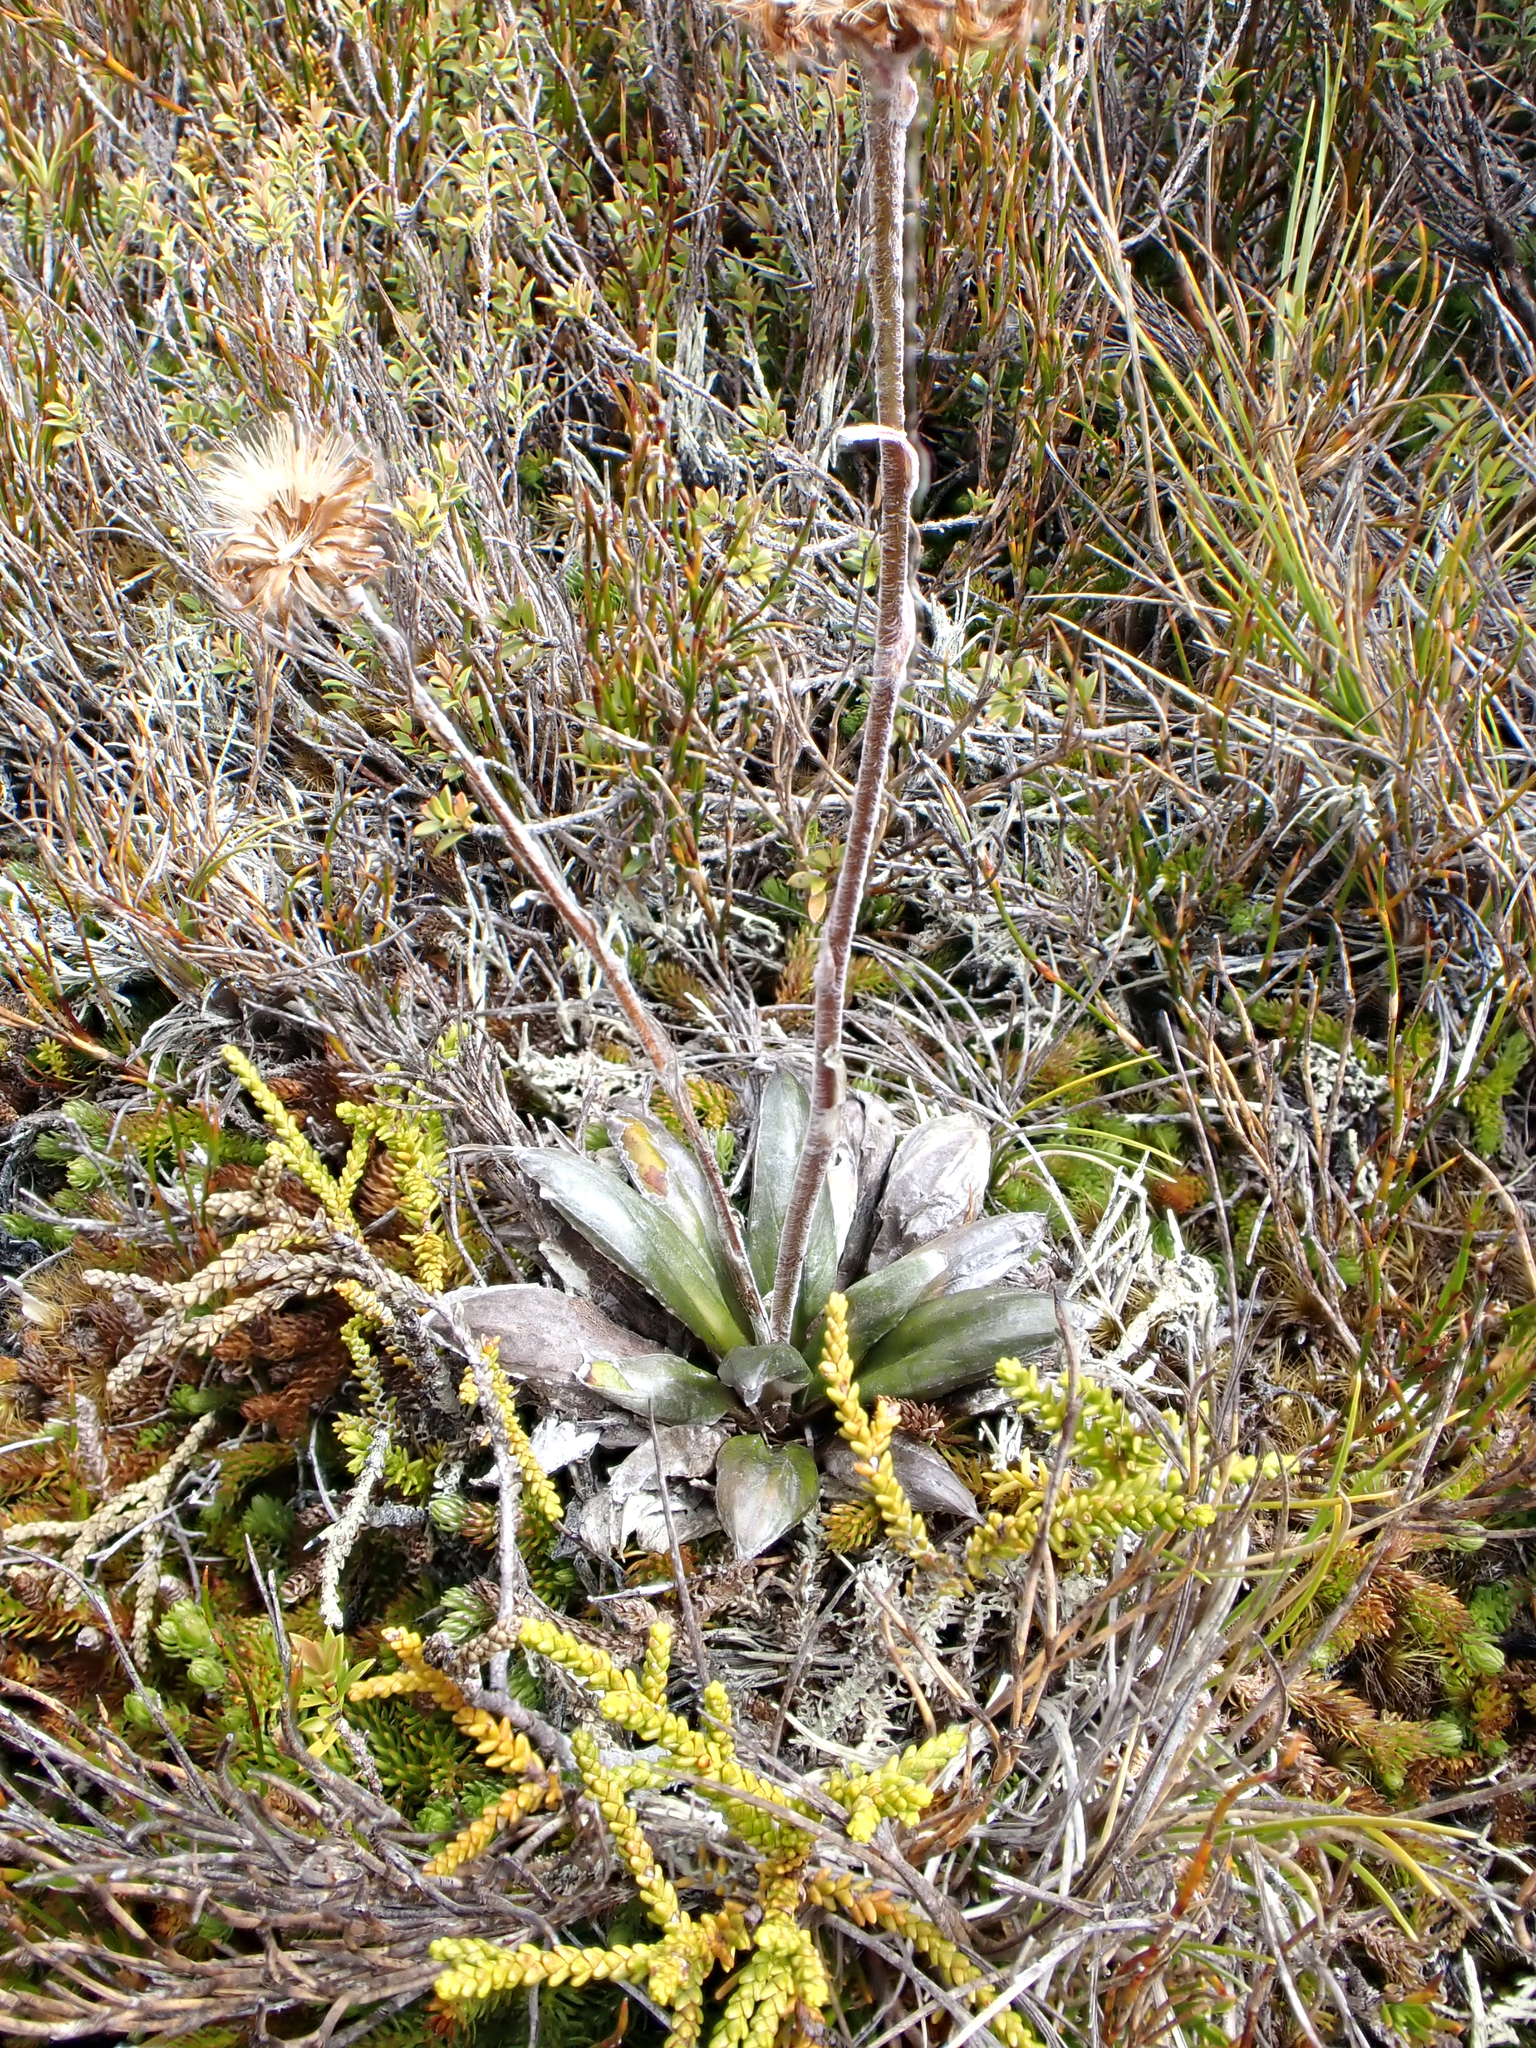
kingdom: Plantae
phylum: Tracheophyta
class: Magnoliopsida
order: Asterales
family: Asteraceae
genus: Celmisia
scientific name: Celmisia dubia
